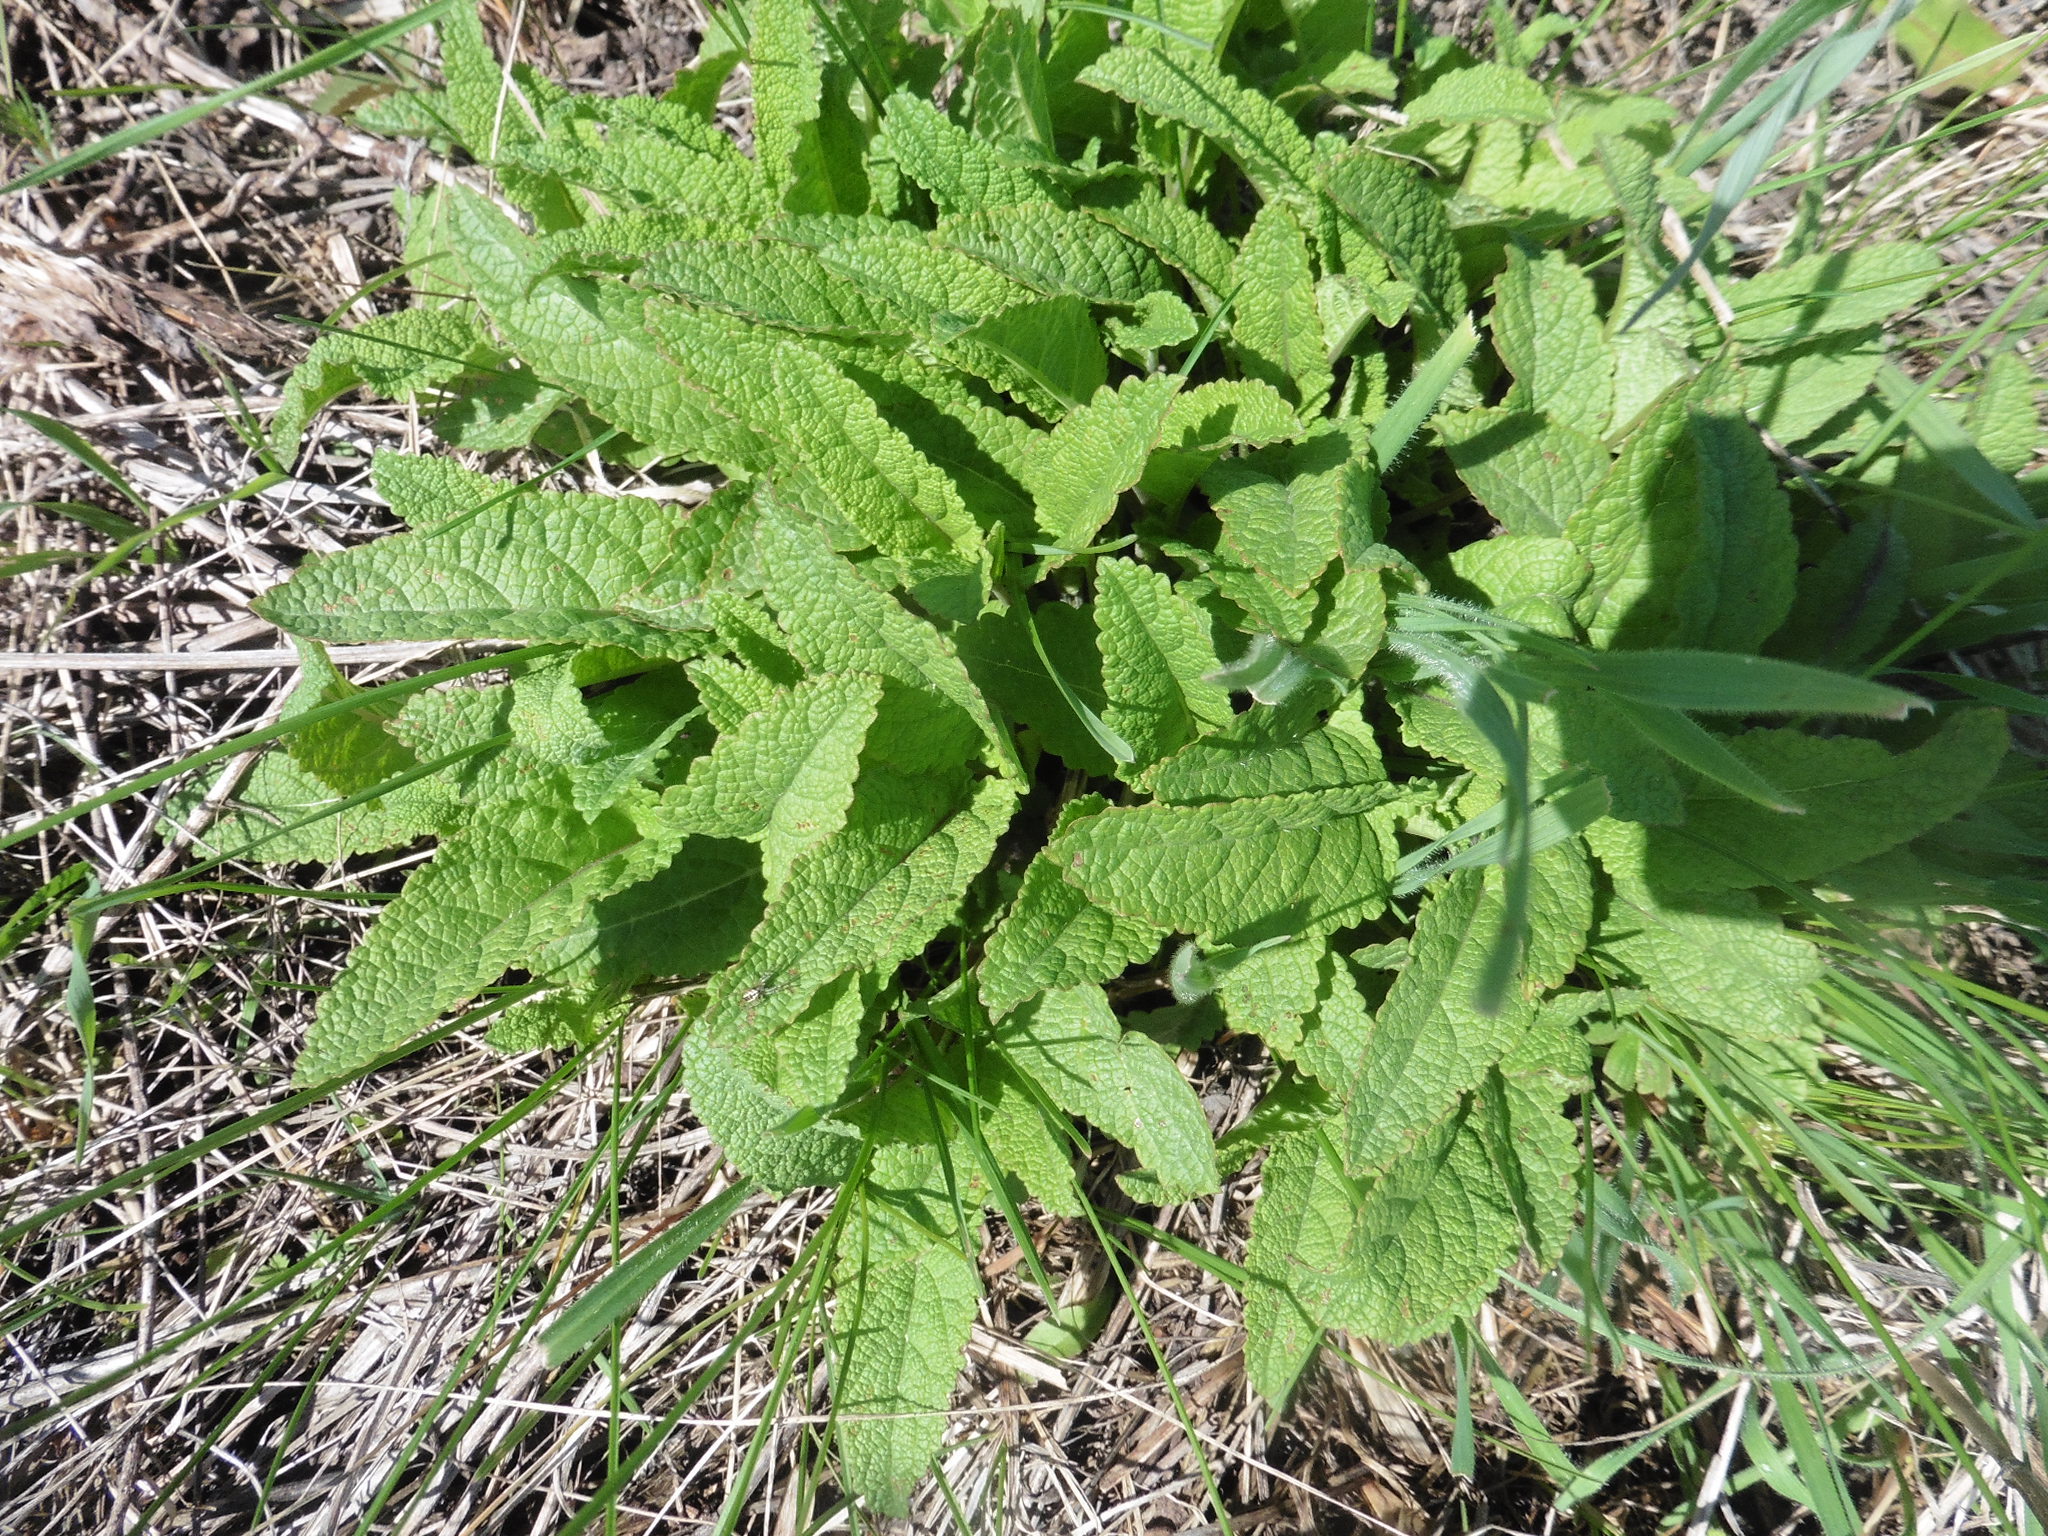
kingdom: Plantae
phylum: Tracheophyta
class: Magnoliopsida
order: Lamiales
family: Lamiaceae
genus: Salvia
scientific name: Salvia dumetorum
